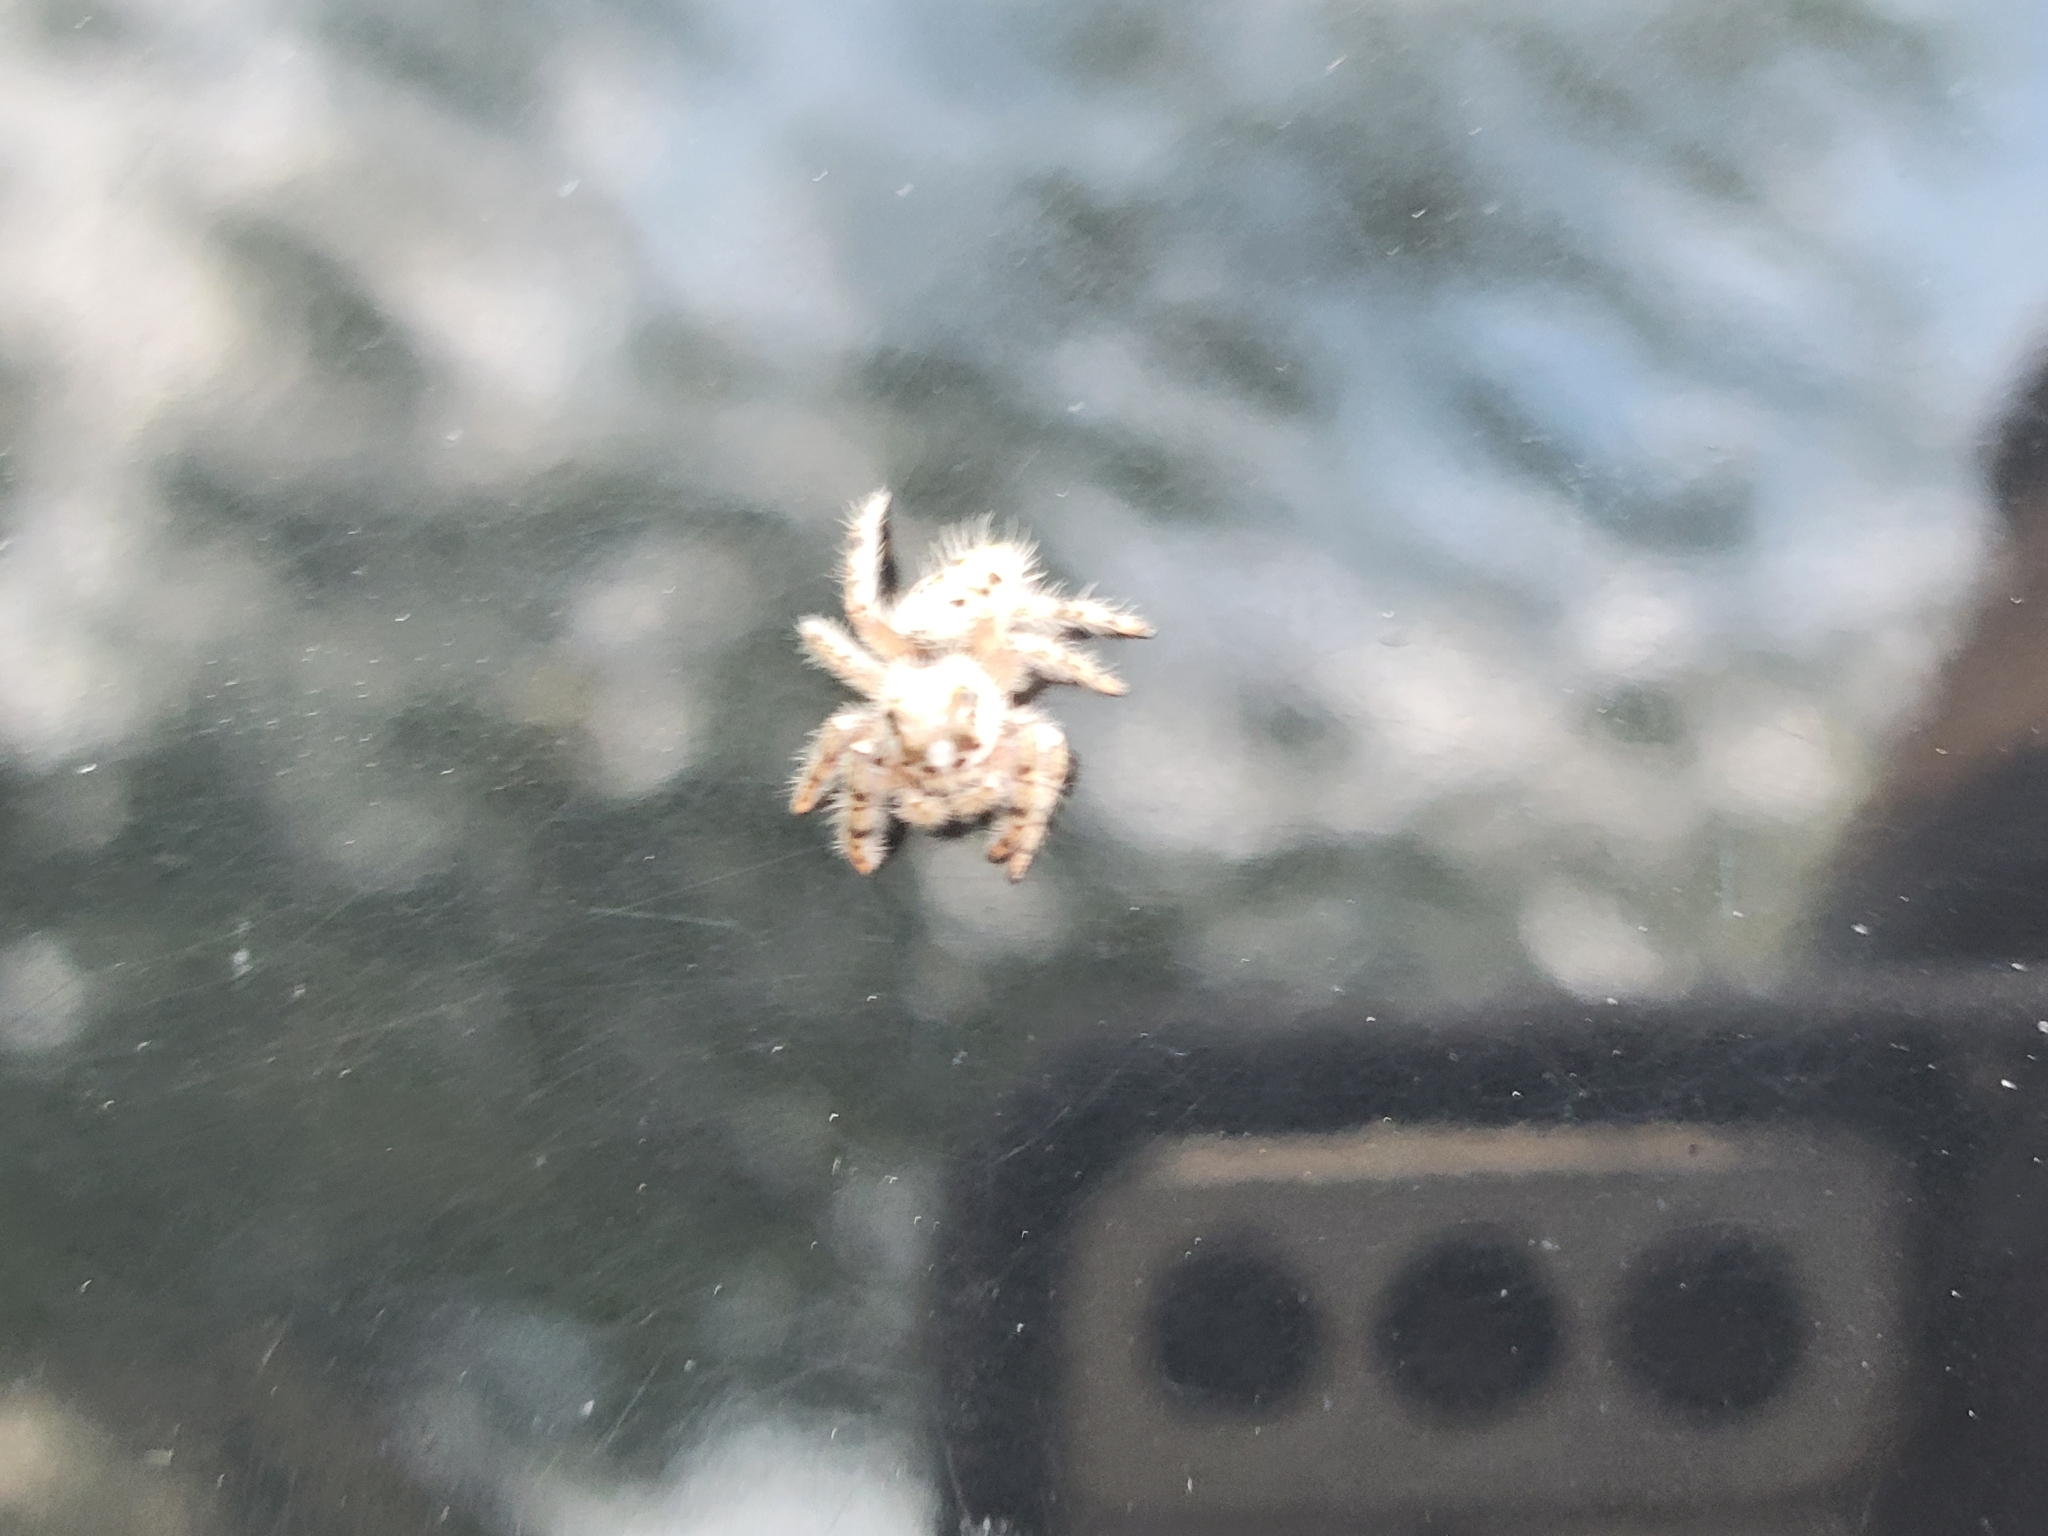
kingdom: Animalia
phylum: Arthropoda
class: Arachnida
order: Araneae
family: Salticidae
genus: Phidippus
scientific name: Phidippus otiosus
